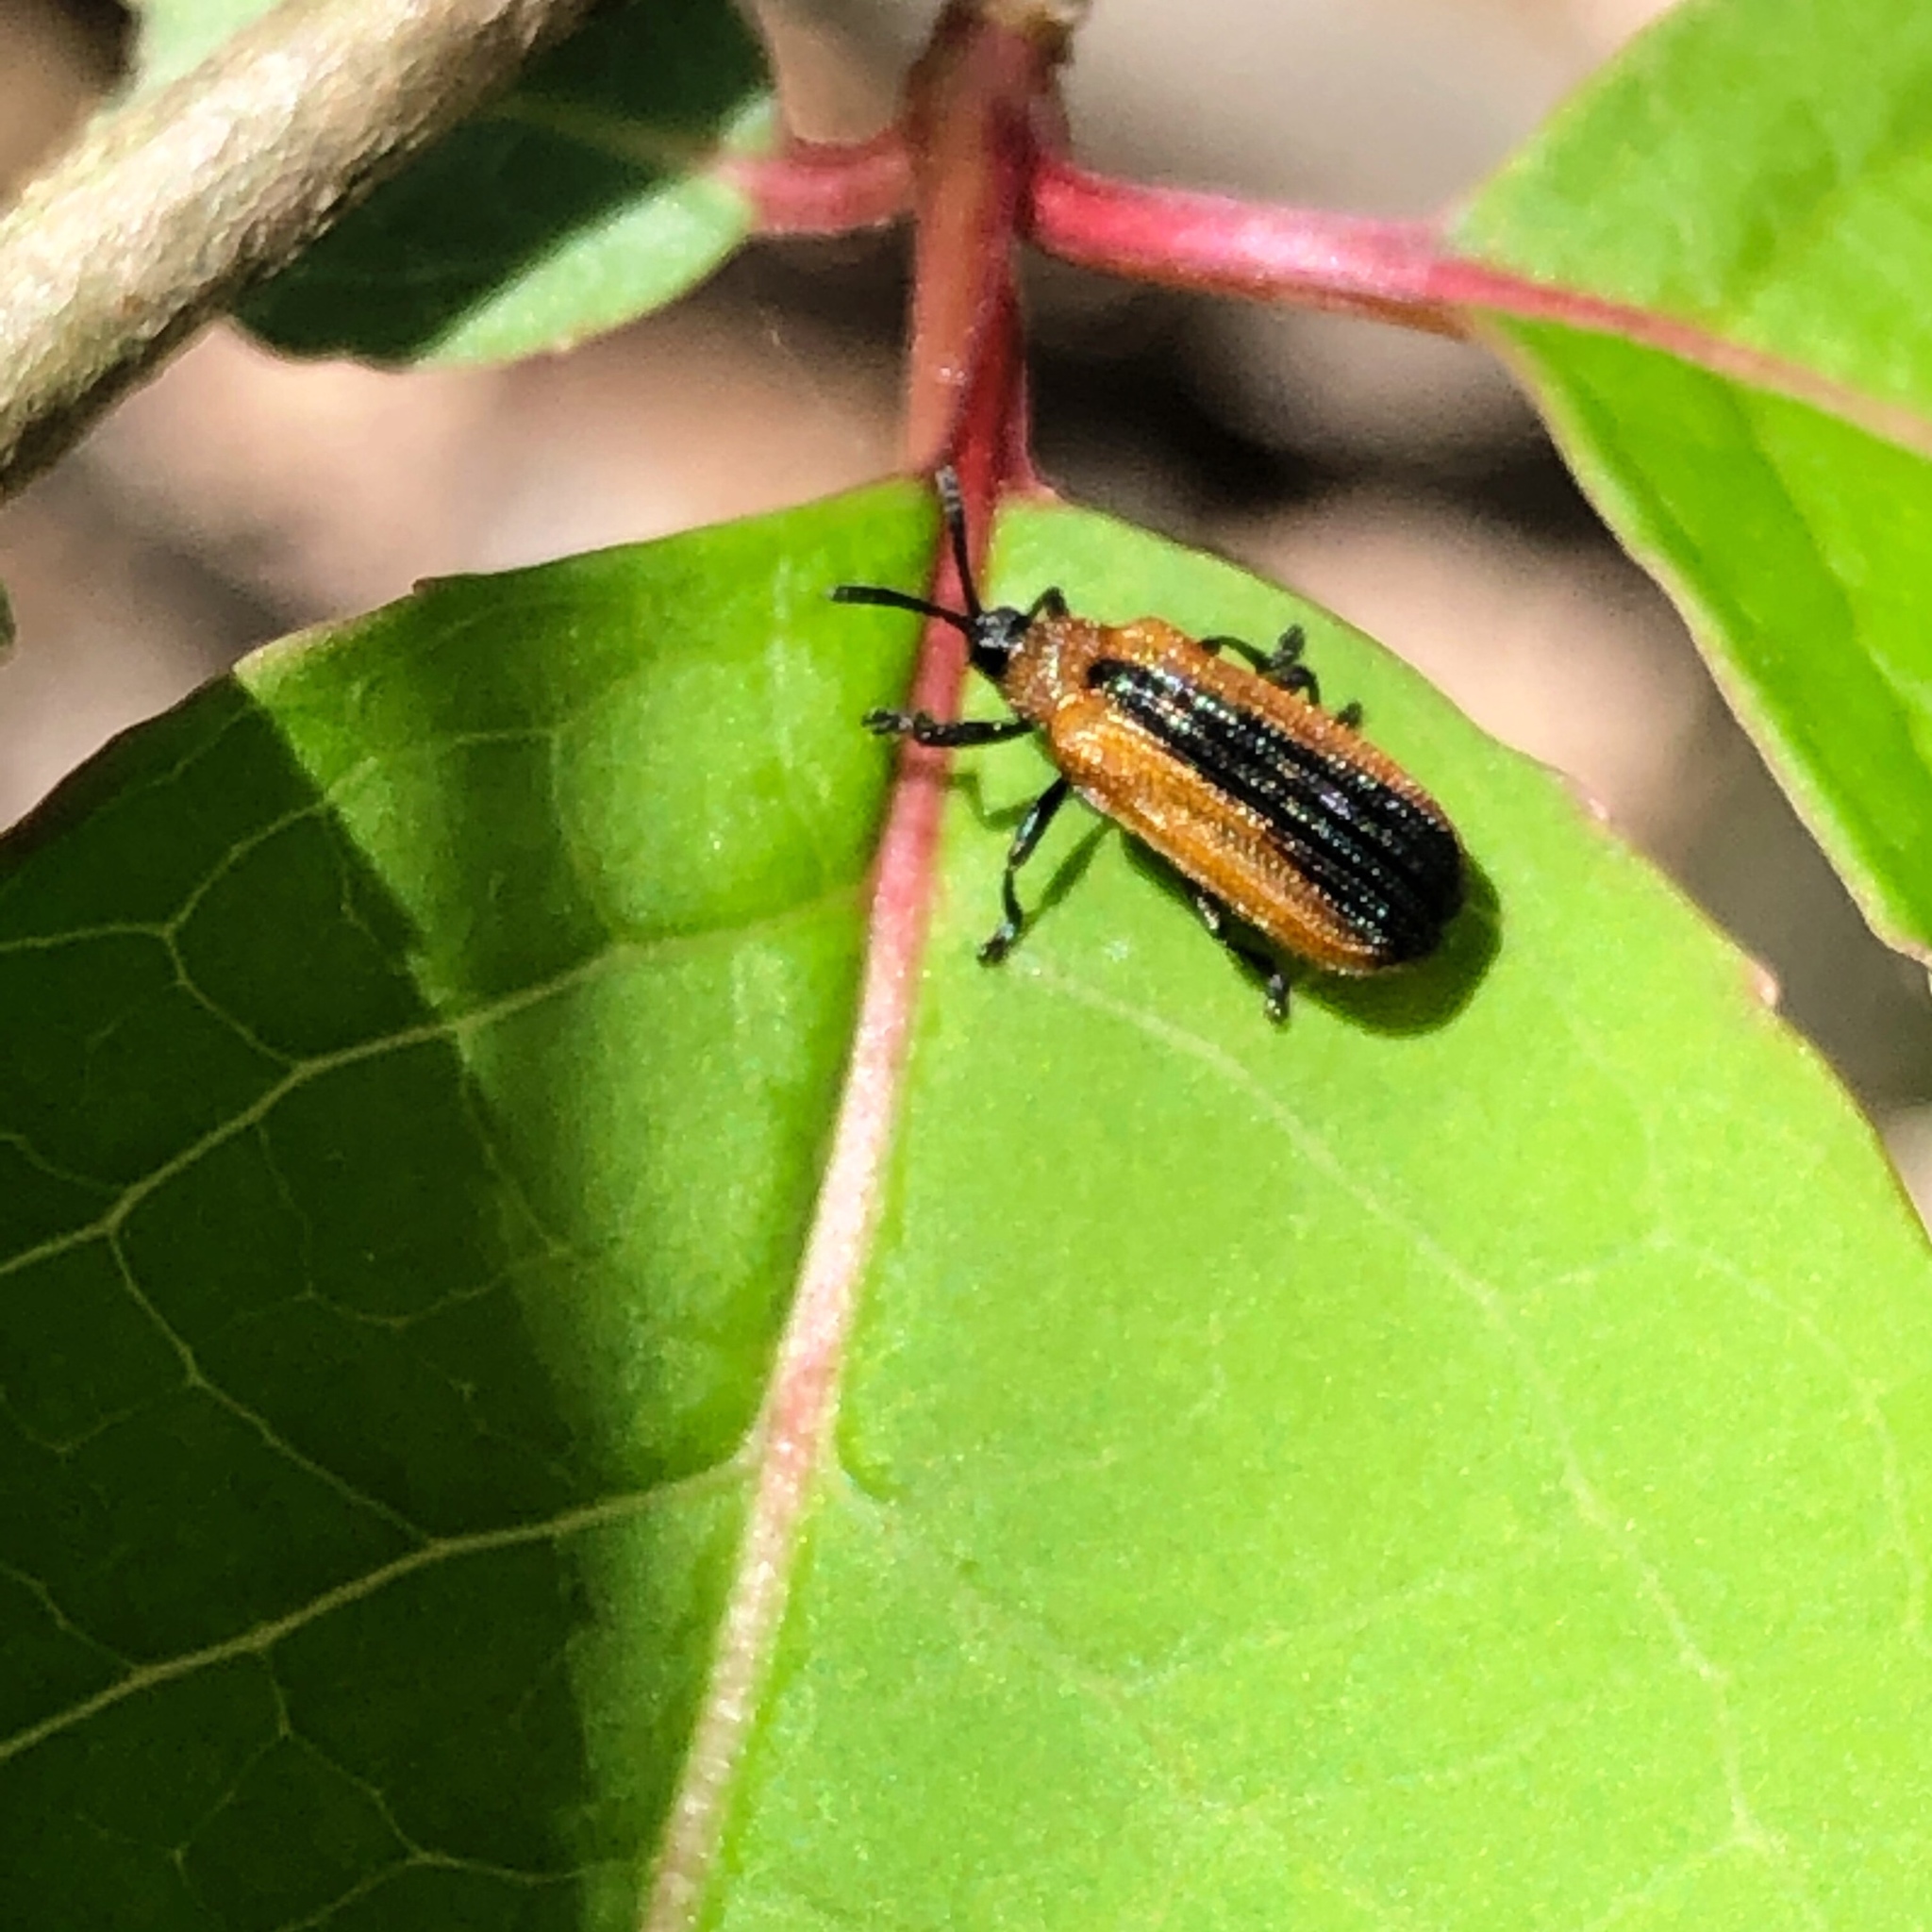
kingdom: Animalia
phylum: Arthropoda
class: Insecta
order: Coleoptera
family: Chrysomelidae
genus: Odontota
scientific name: Odontota dorsalis
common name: Locust leaf-miner beetle
